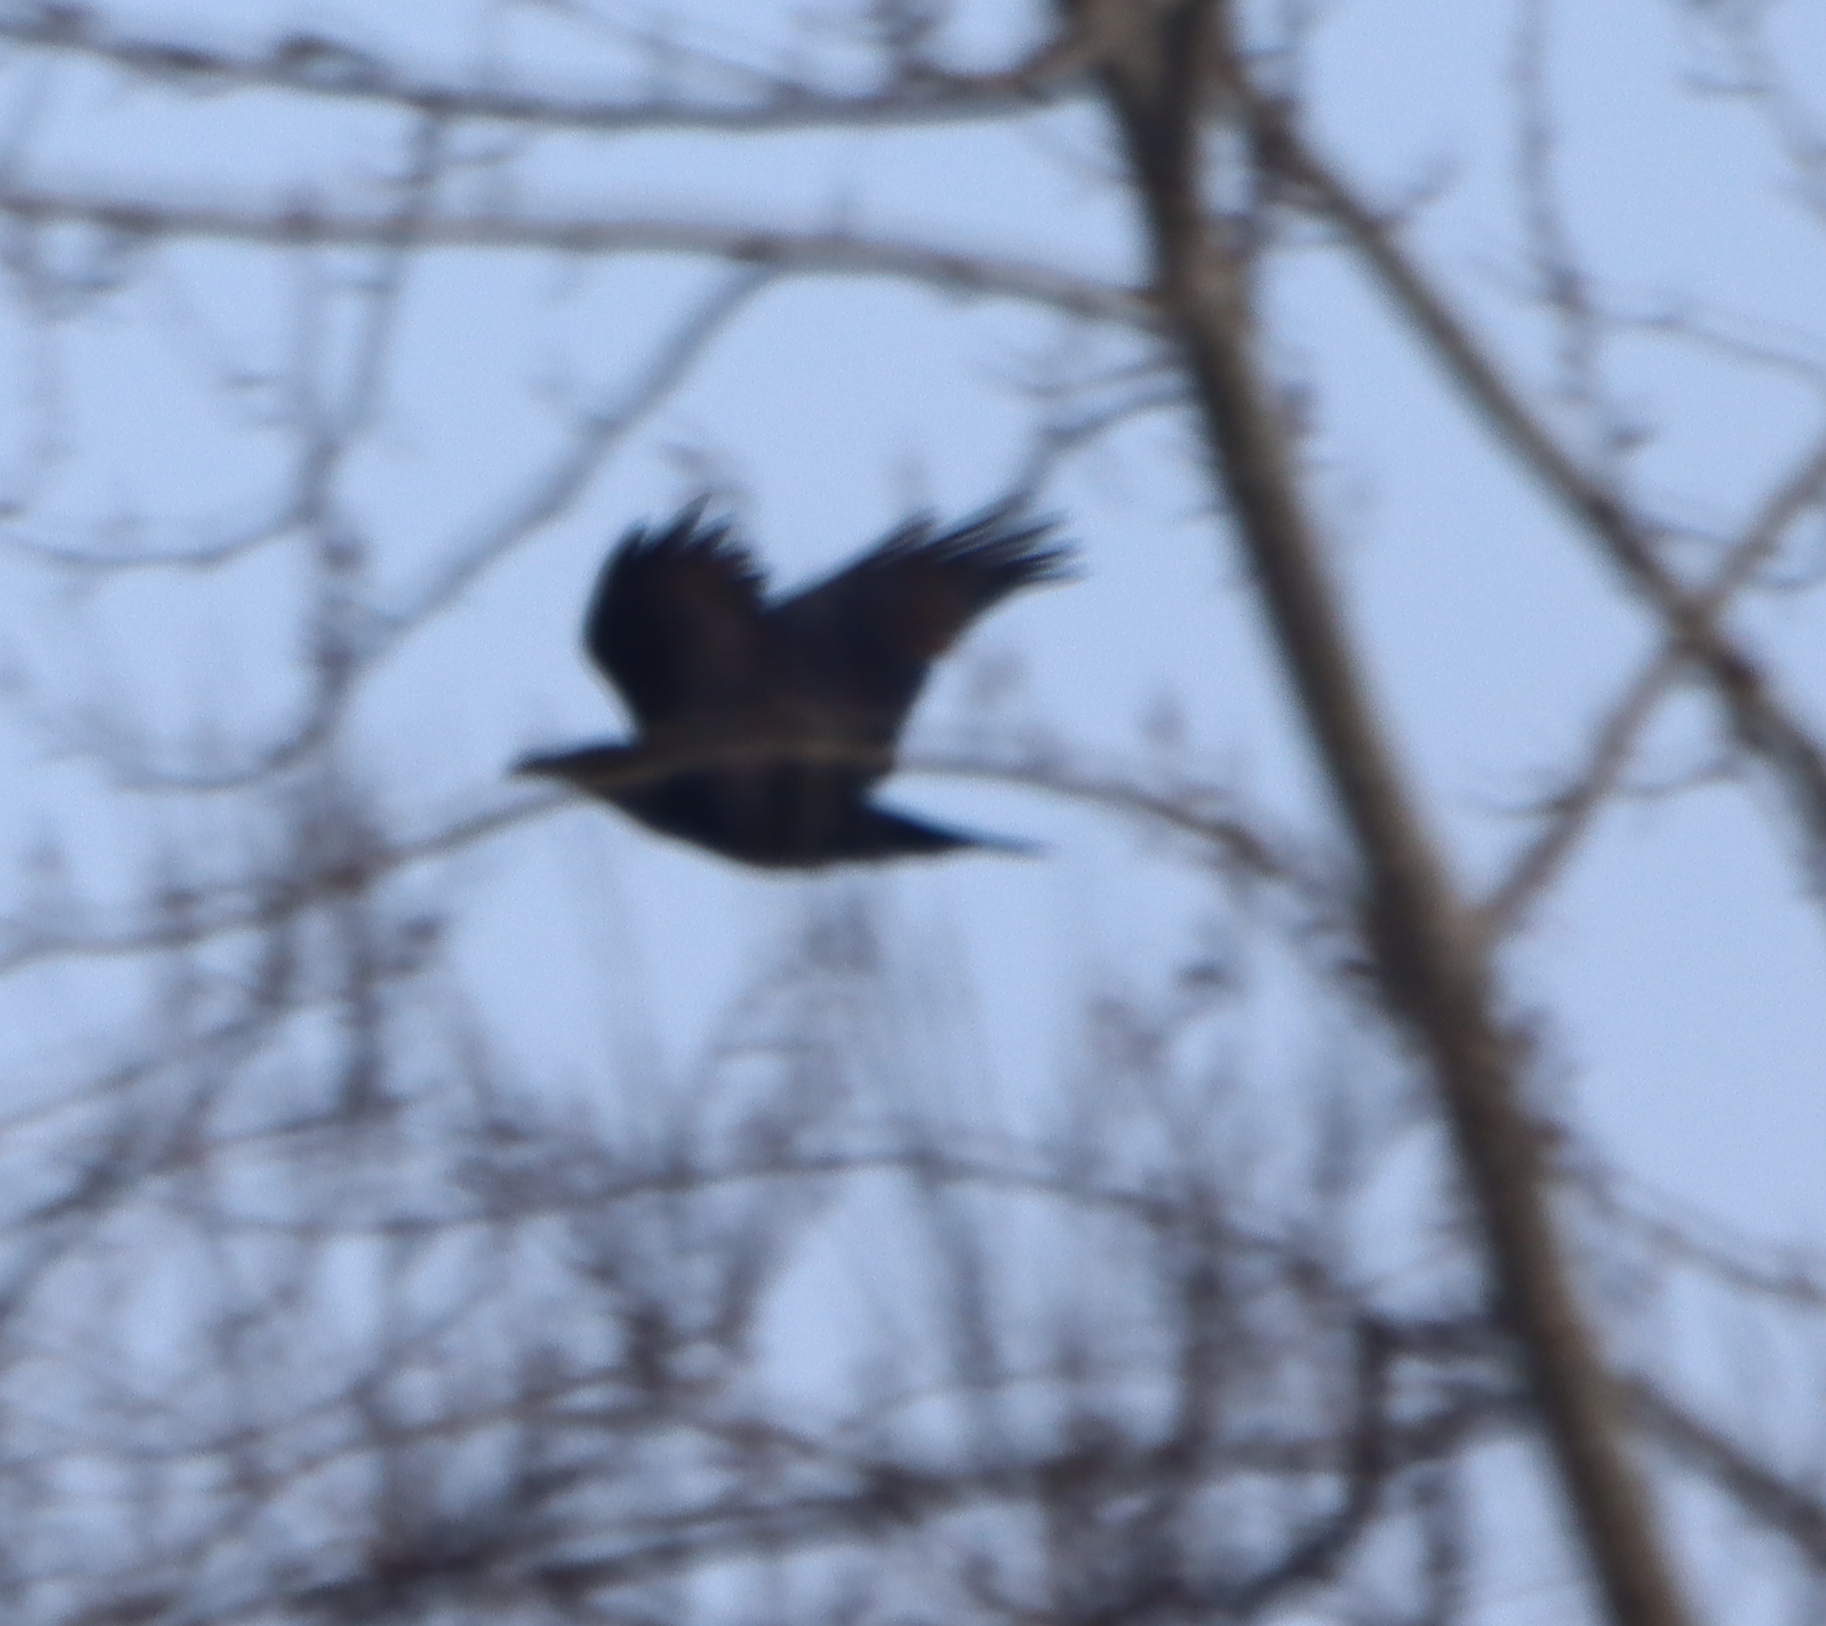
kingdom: Animalia
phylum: Chordata
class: Aves
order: Passeriformes
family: Corvidae
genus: Corvus
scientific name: Corvus corax
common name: Common raven
